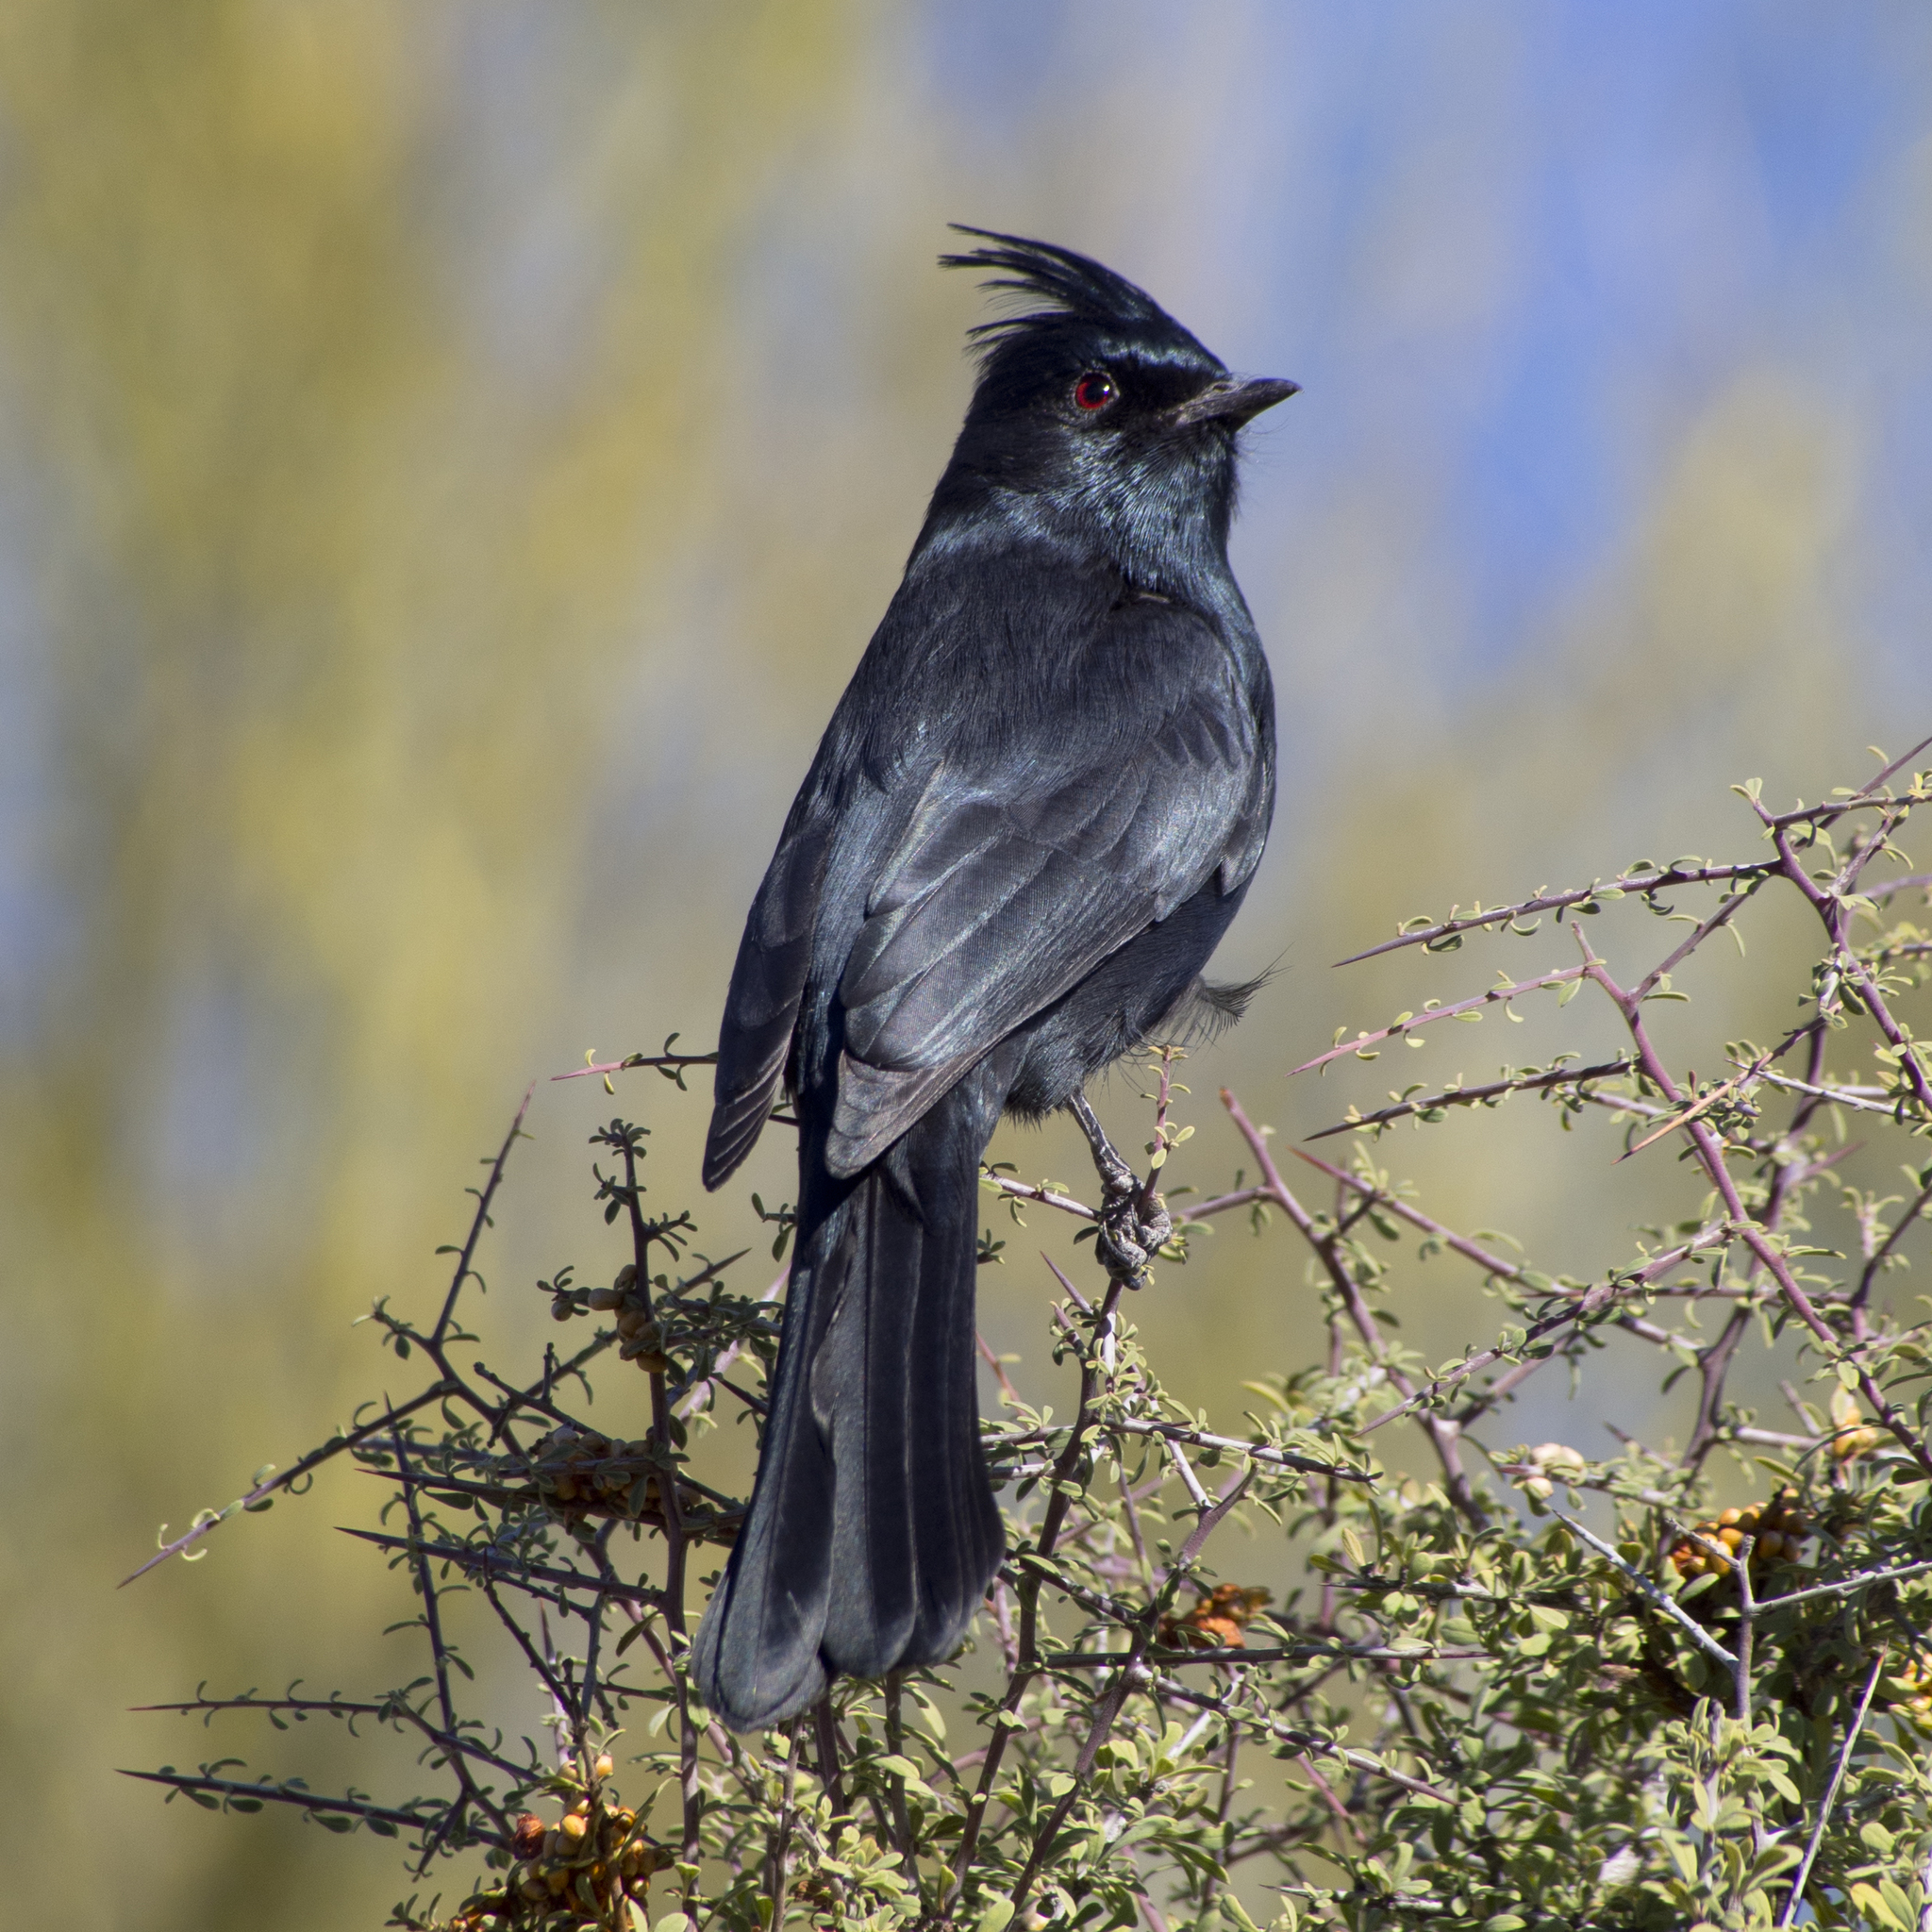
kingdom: Animalia
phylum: Chordata
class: Aves
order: Passeriformes
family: Ptilogonatidae
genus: Phainopepla
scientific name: Phainopepla nitens
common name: Phainopepla
